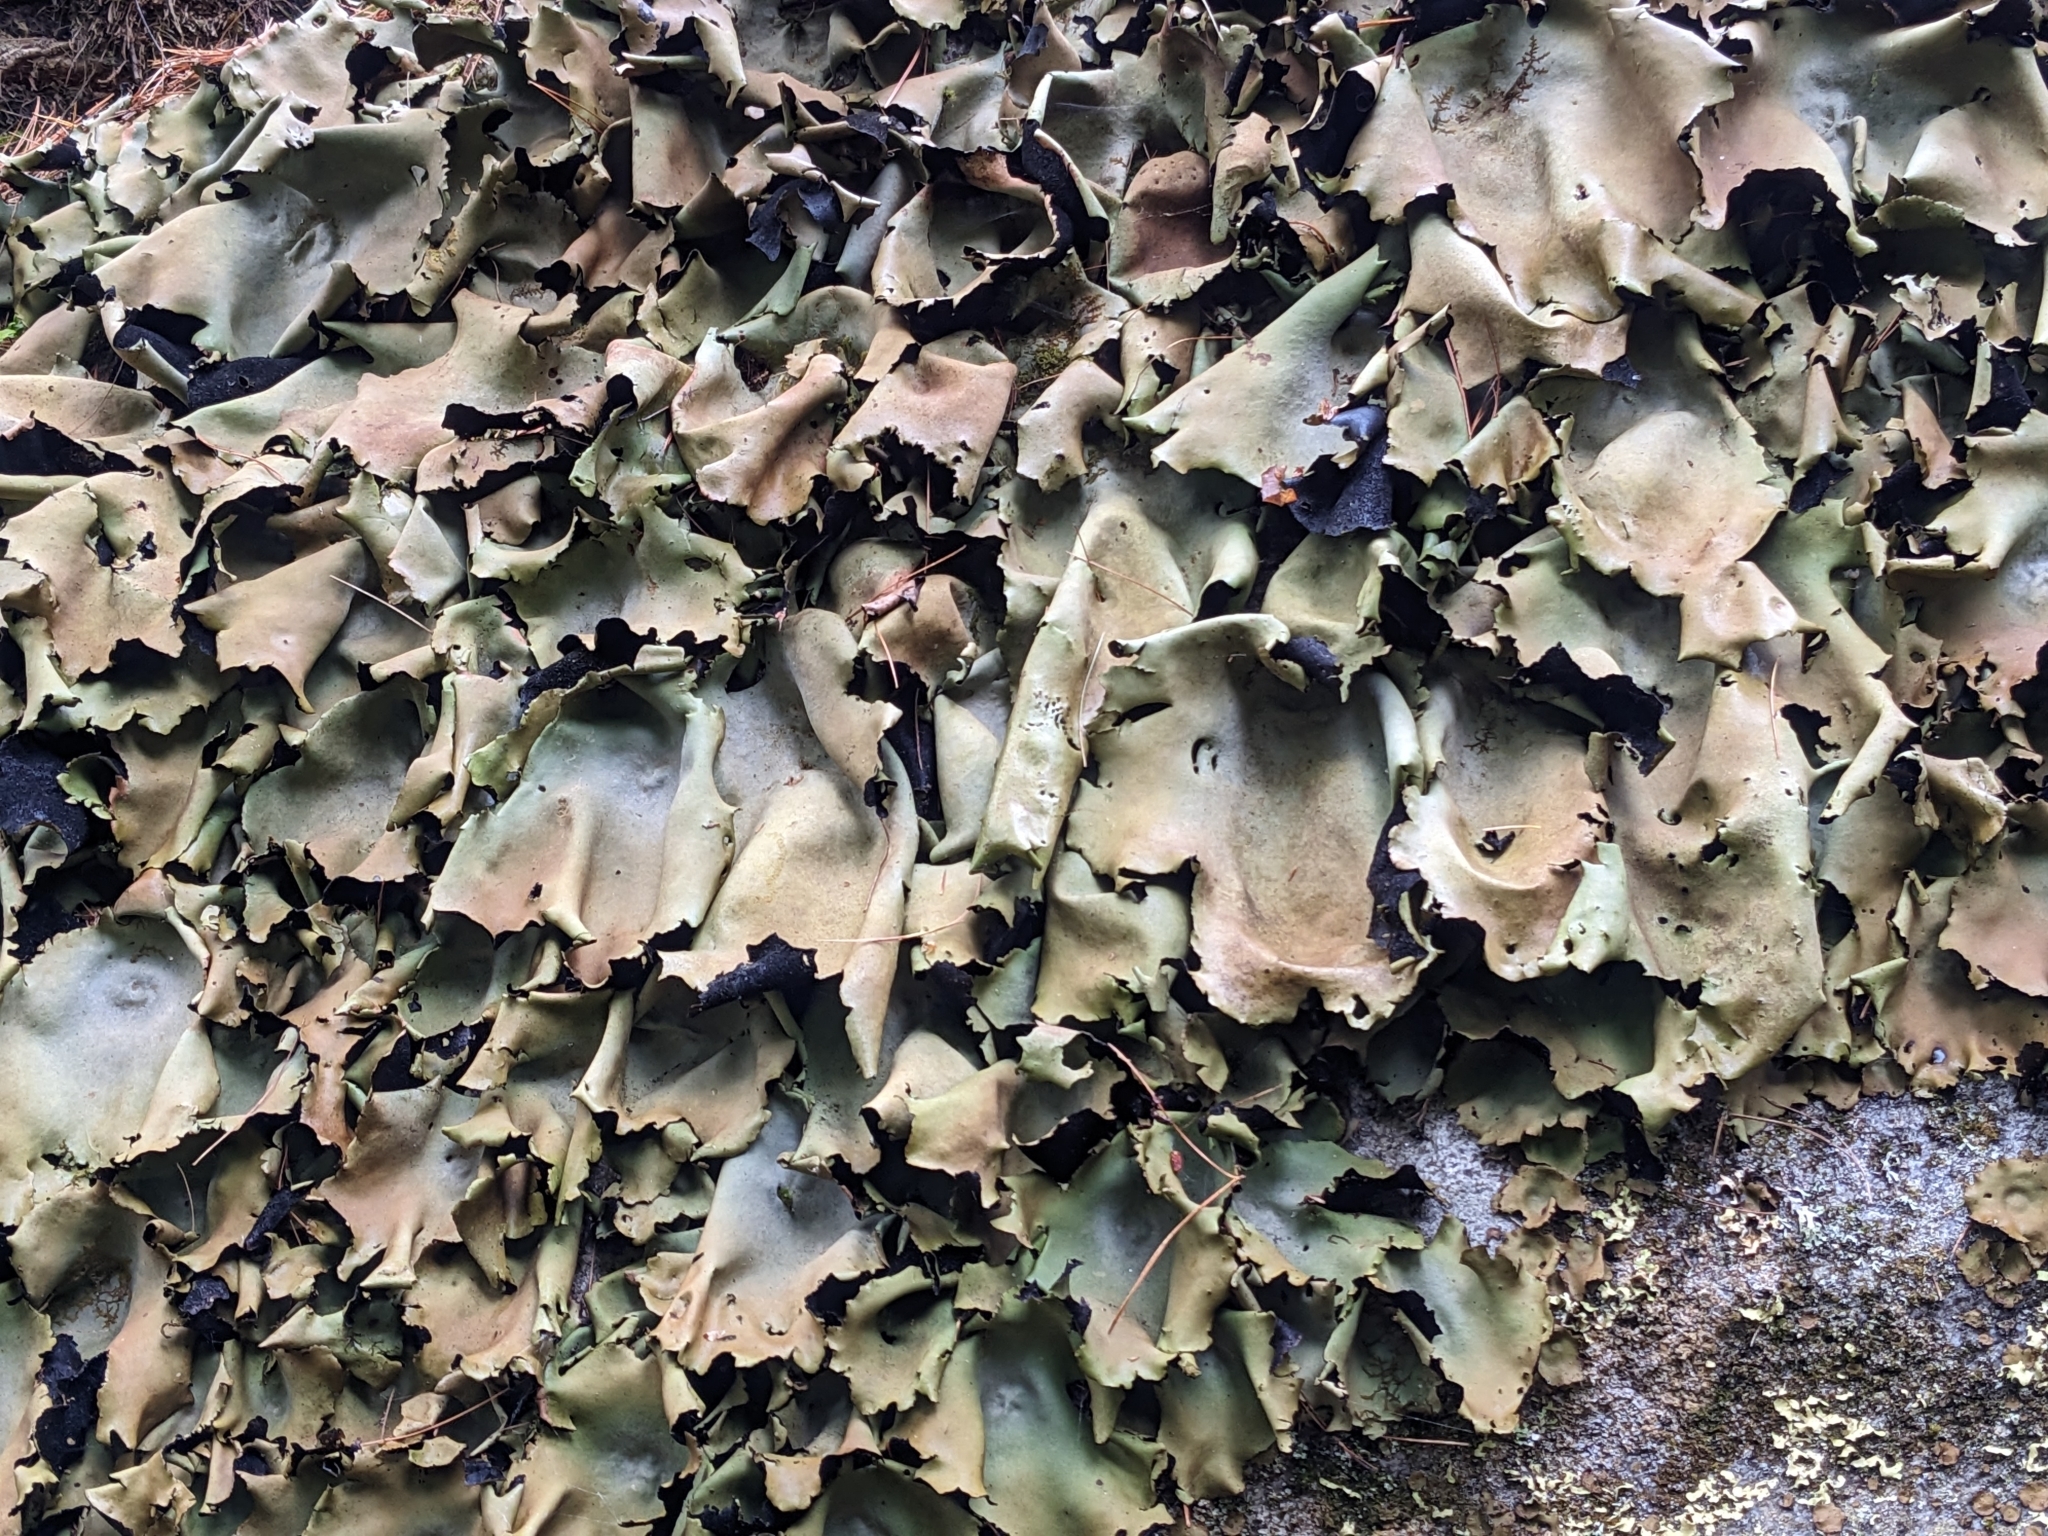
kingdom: Fungi
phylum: Ascomycota
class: Lecanoromycetes
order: Umbilicariales
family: Umbilicariaceae
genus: Umbilicaria
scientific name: Umbilicaria mammulata
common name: Smooth rock tripe
